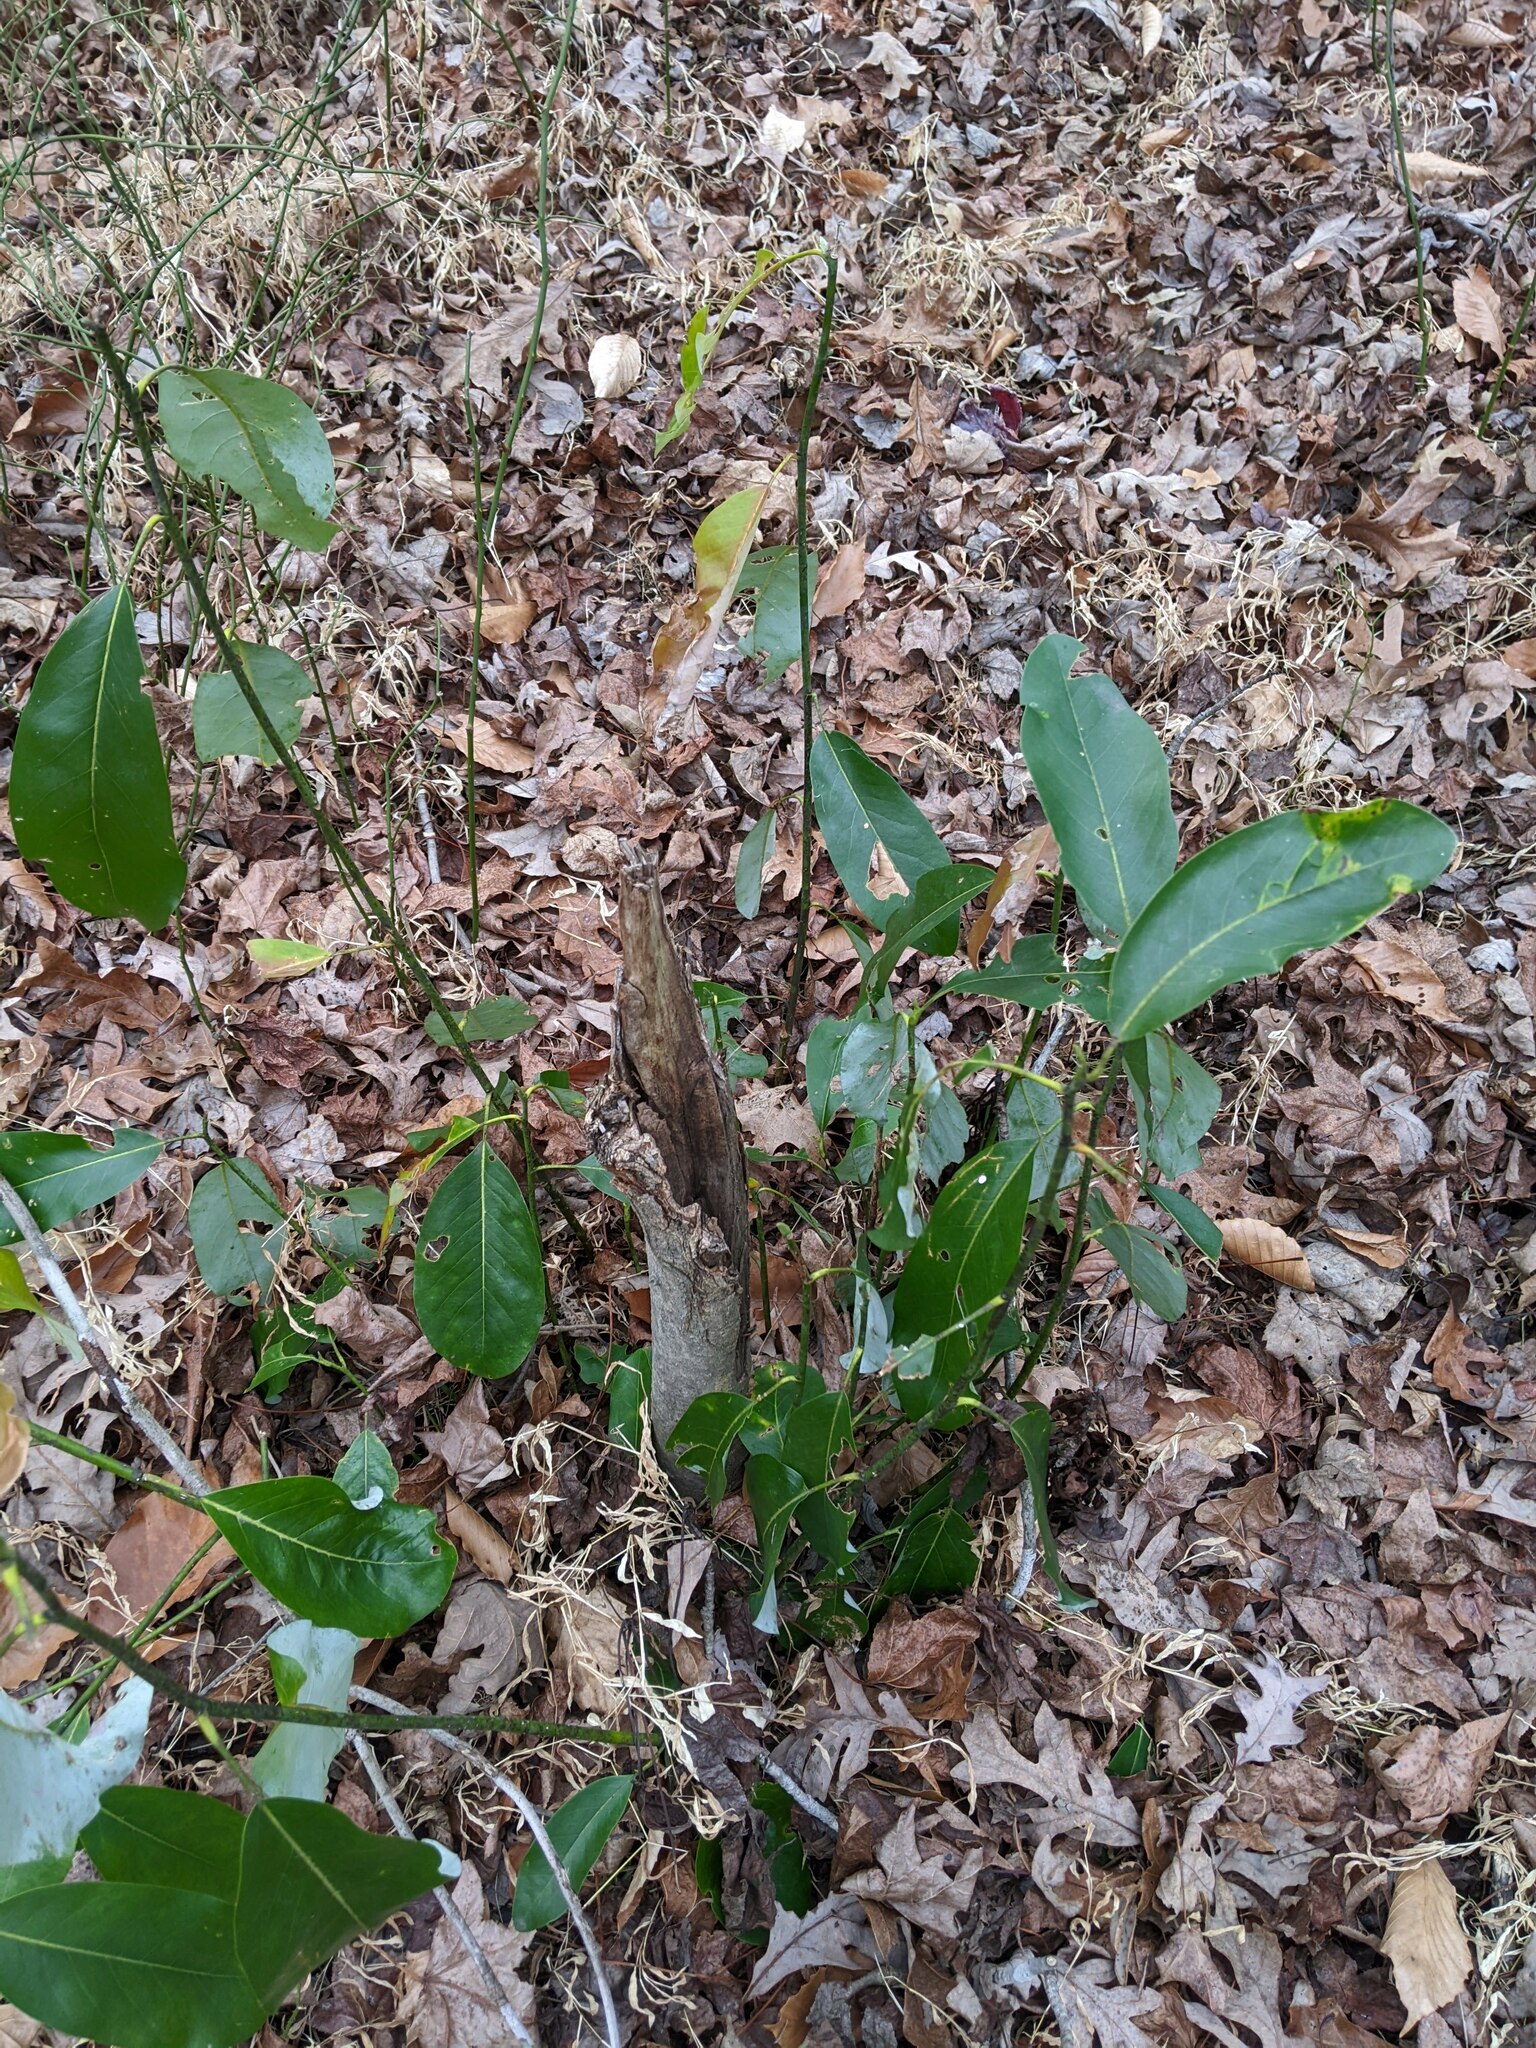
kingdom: Plantae
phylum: Tracheophyta
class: Magnoliopsida
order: Magnoliales
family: Magnoliaceae
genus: Magnolia
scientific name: Magnolia virginiana
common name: Swamp bay
